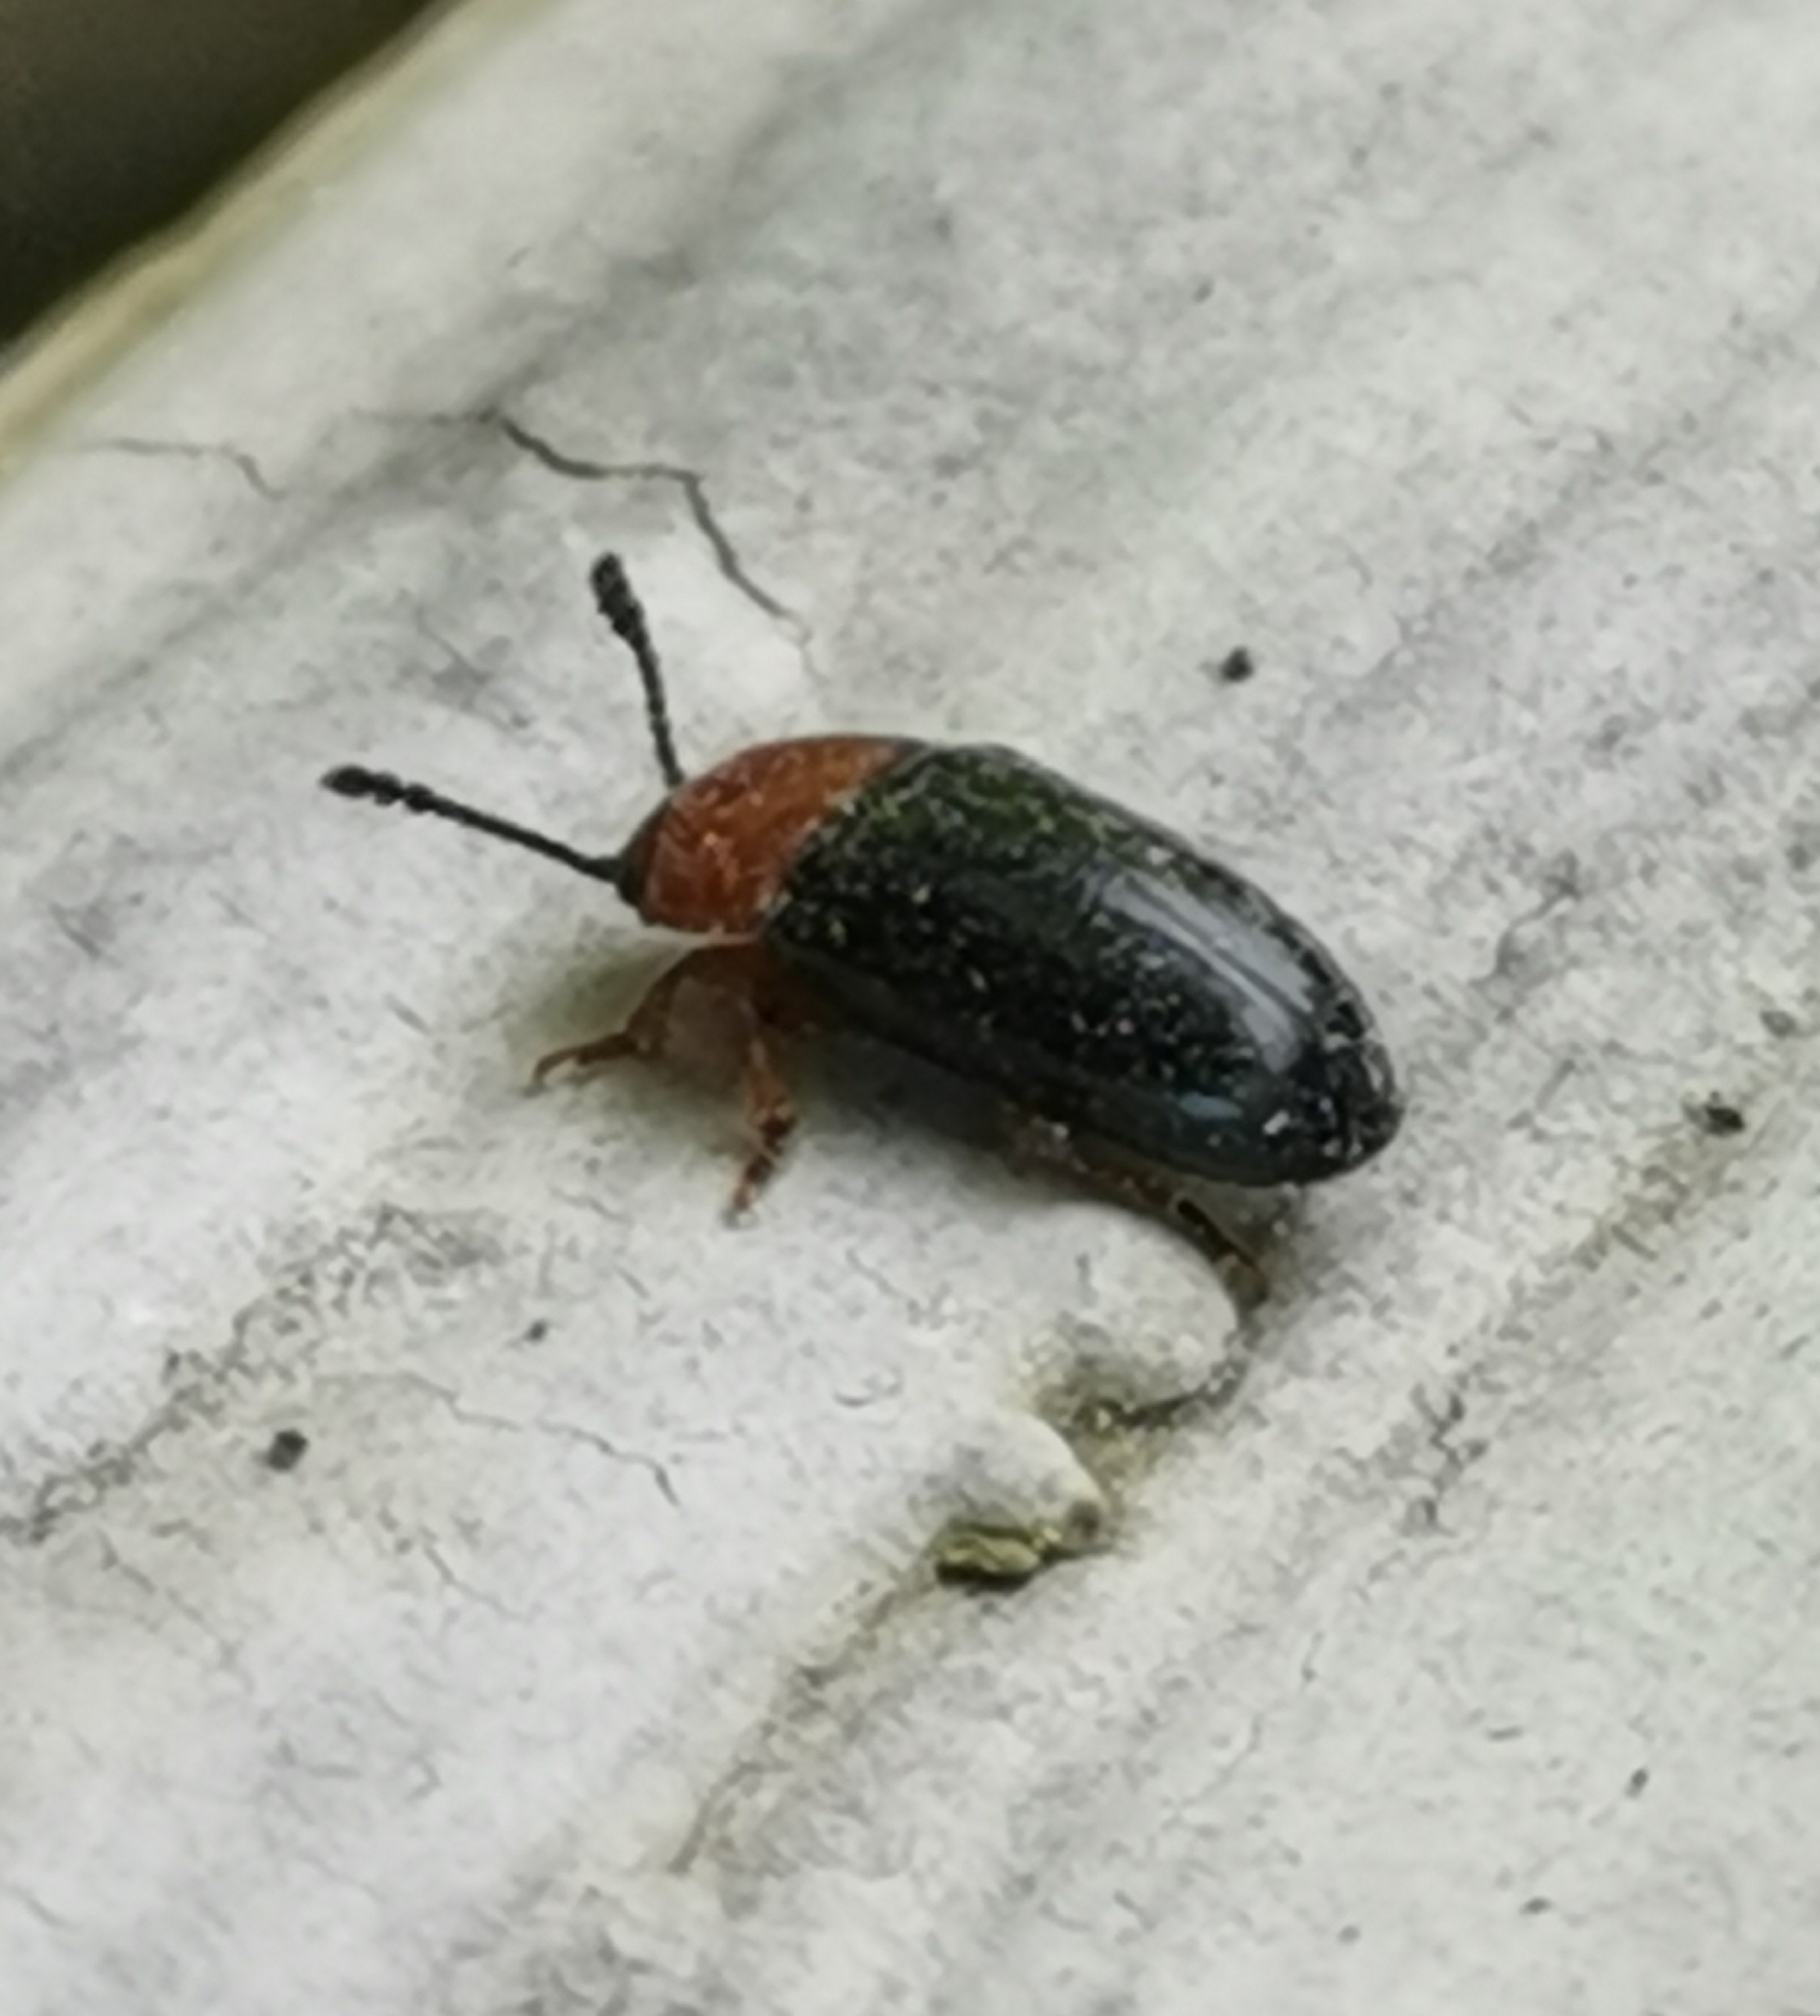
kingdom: Animalia
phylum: Arthropoda
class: Insecta
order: Coleoptera
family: Erotylidae
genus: Triplax
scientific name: Triplax russica
